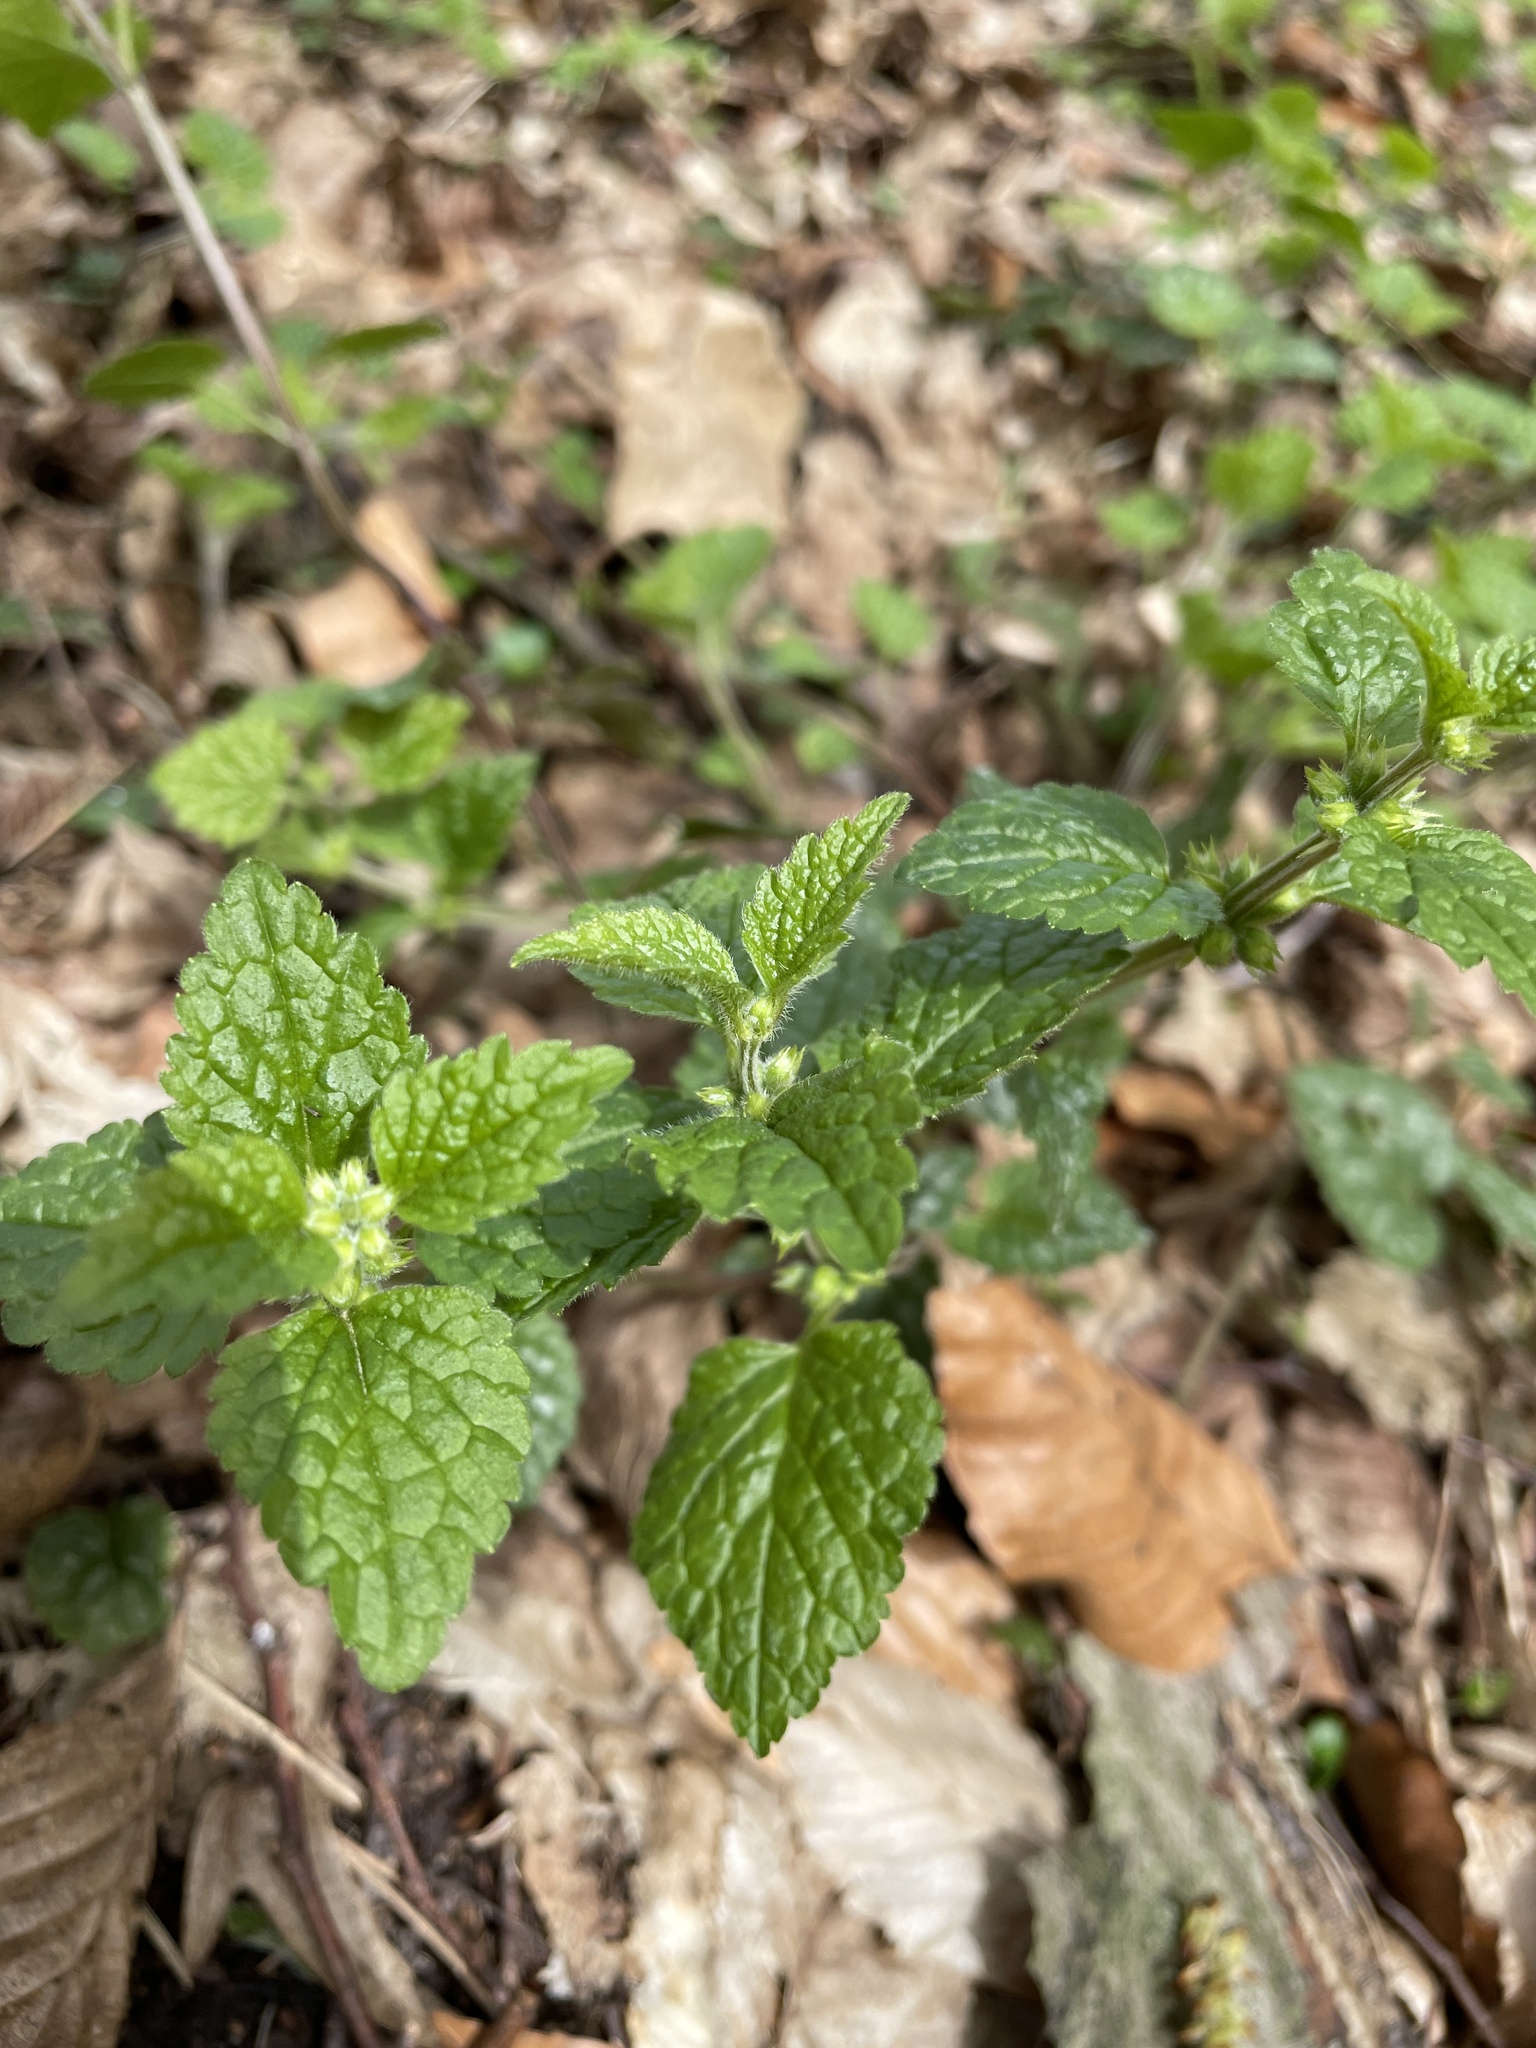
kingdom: Plantae
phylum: Tracheophyta
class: Magnoliopsida
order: Lamiales
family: Lamiaceae
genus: Lamium
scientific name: Lamium galeobdolon
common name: Yellow archangel
